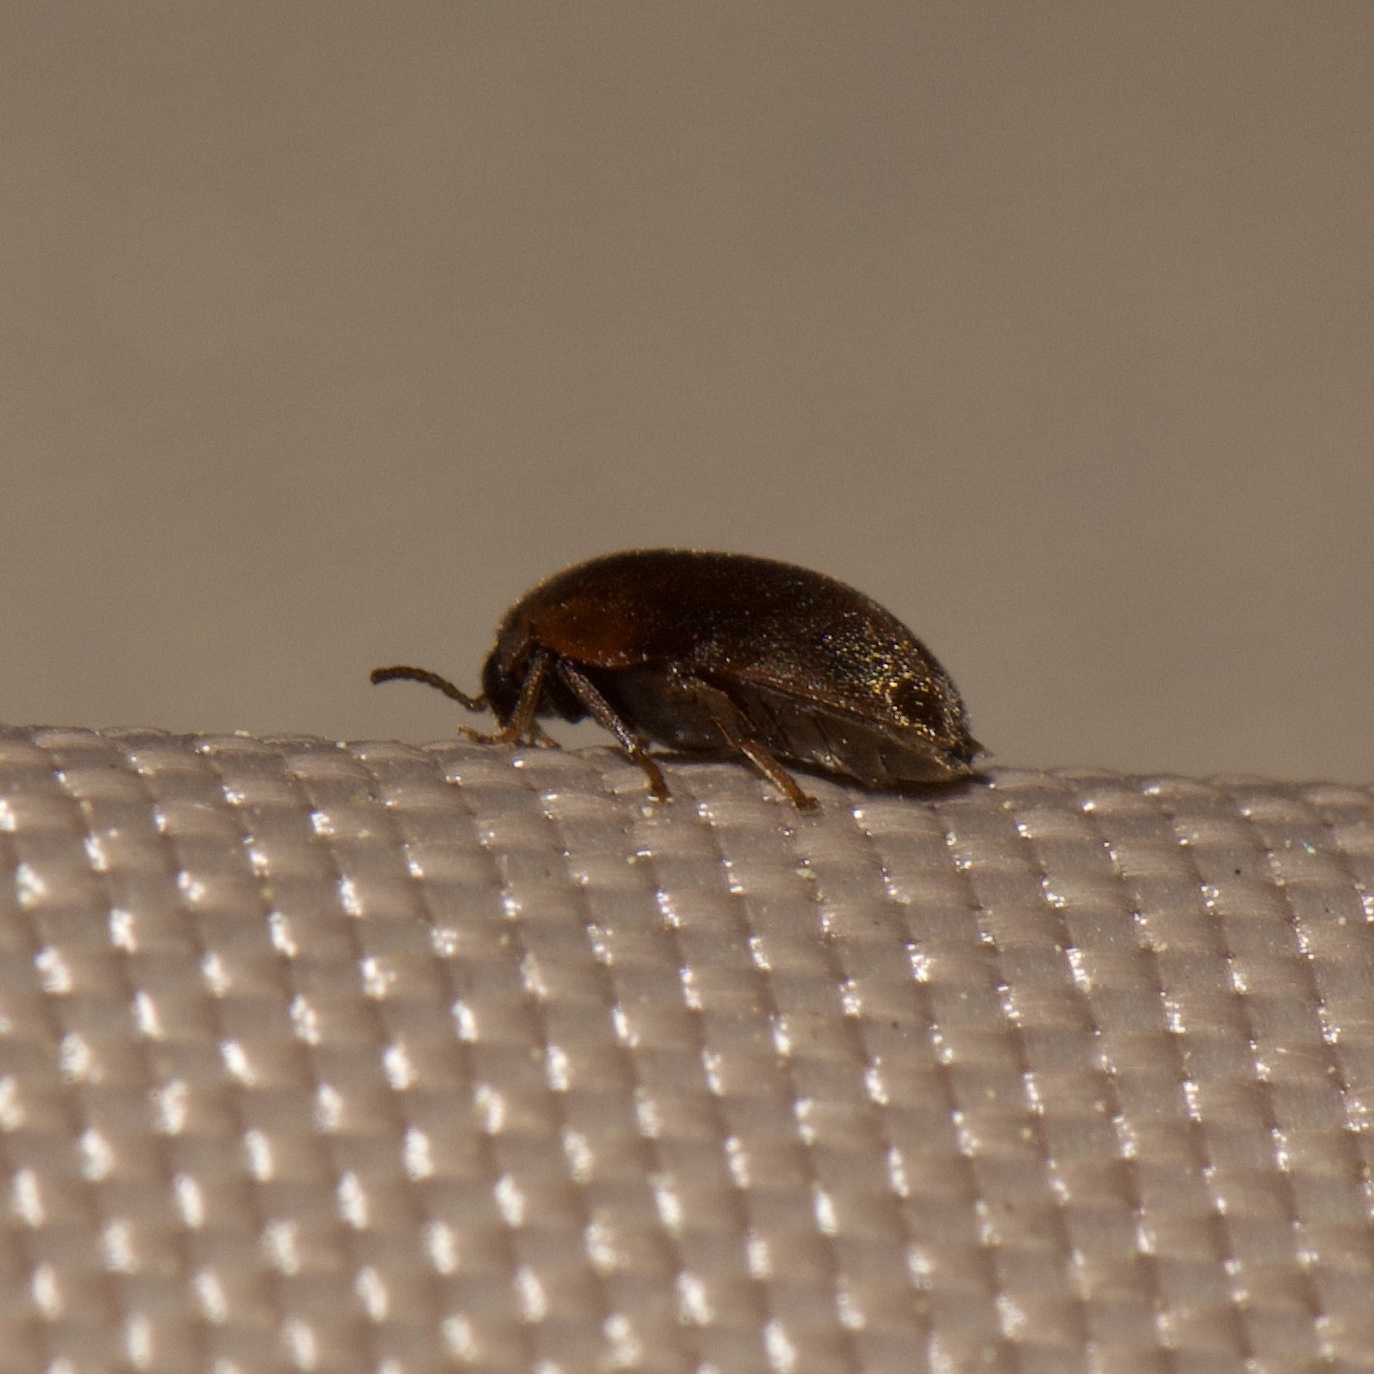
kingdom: Animalia
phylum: Arthropoda
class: Insecta
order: Coleoptera
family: Scirtidae
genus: Scirtes
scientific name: Scirtes tibialis
